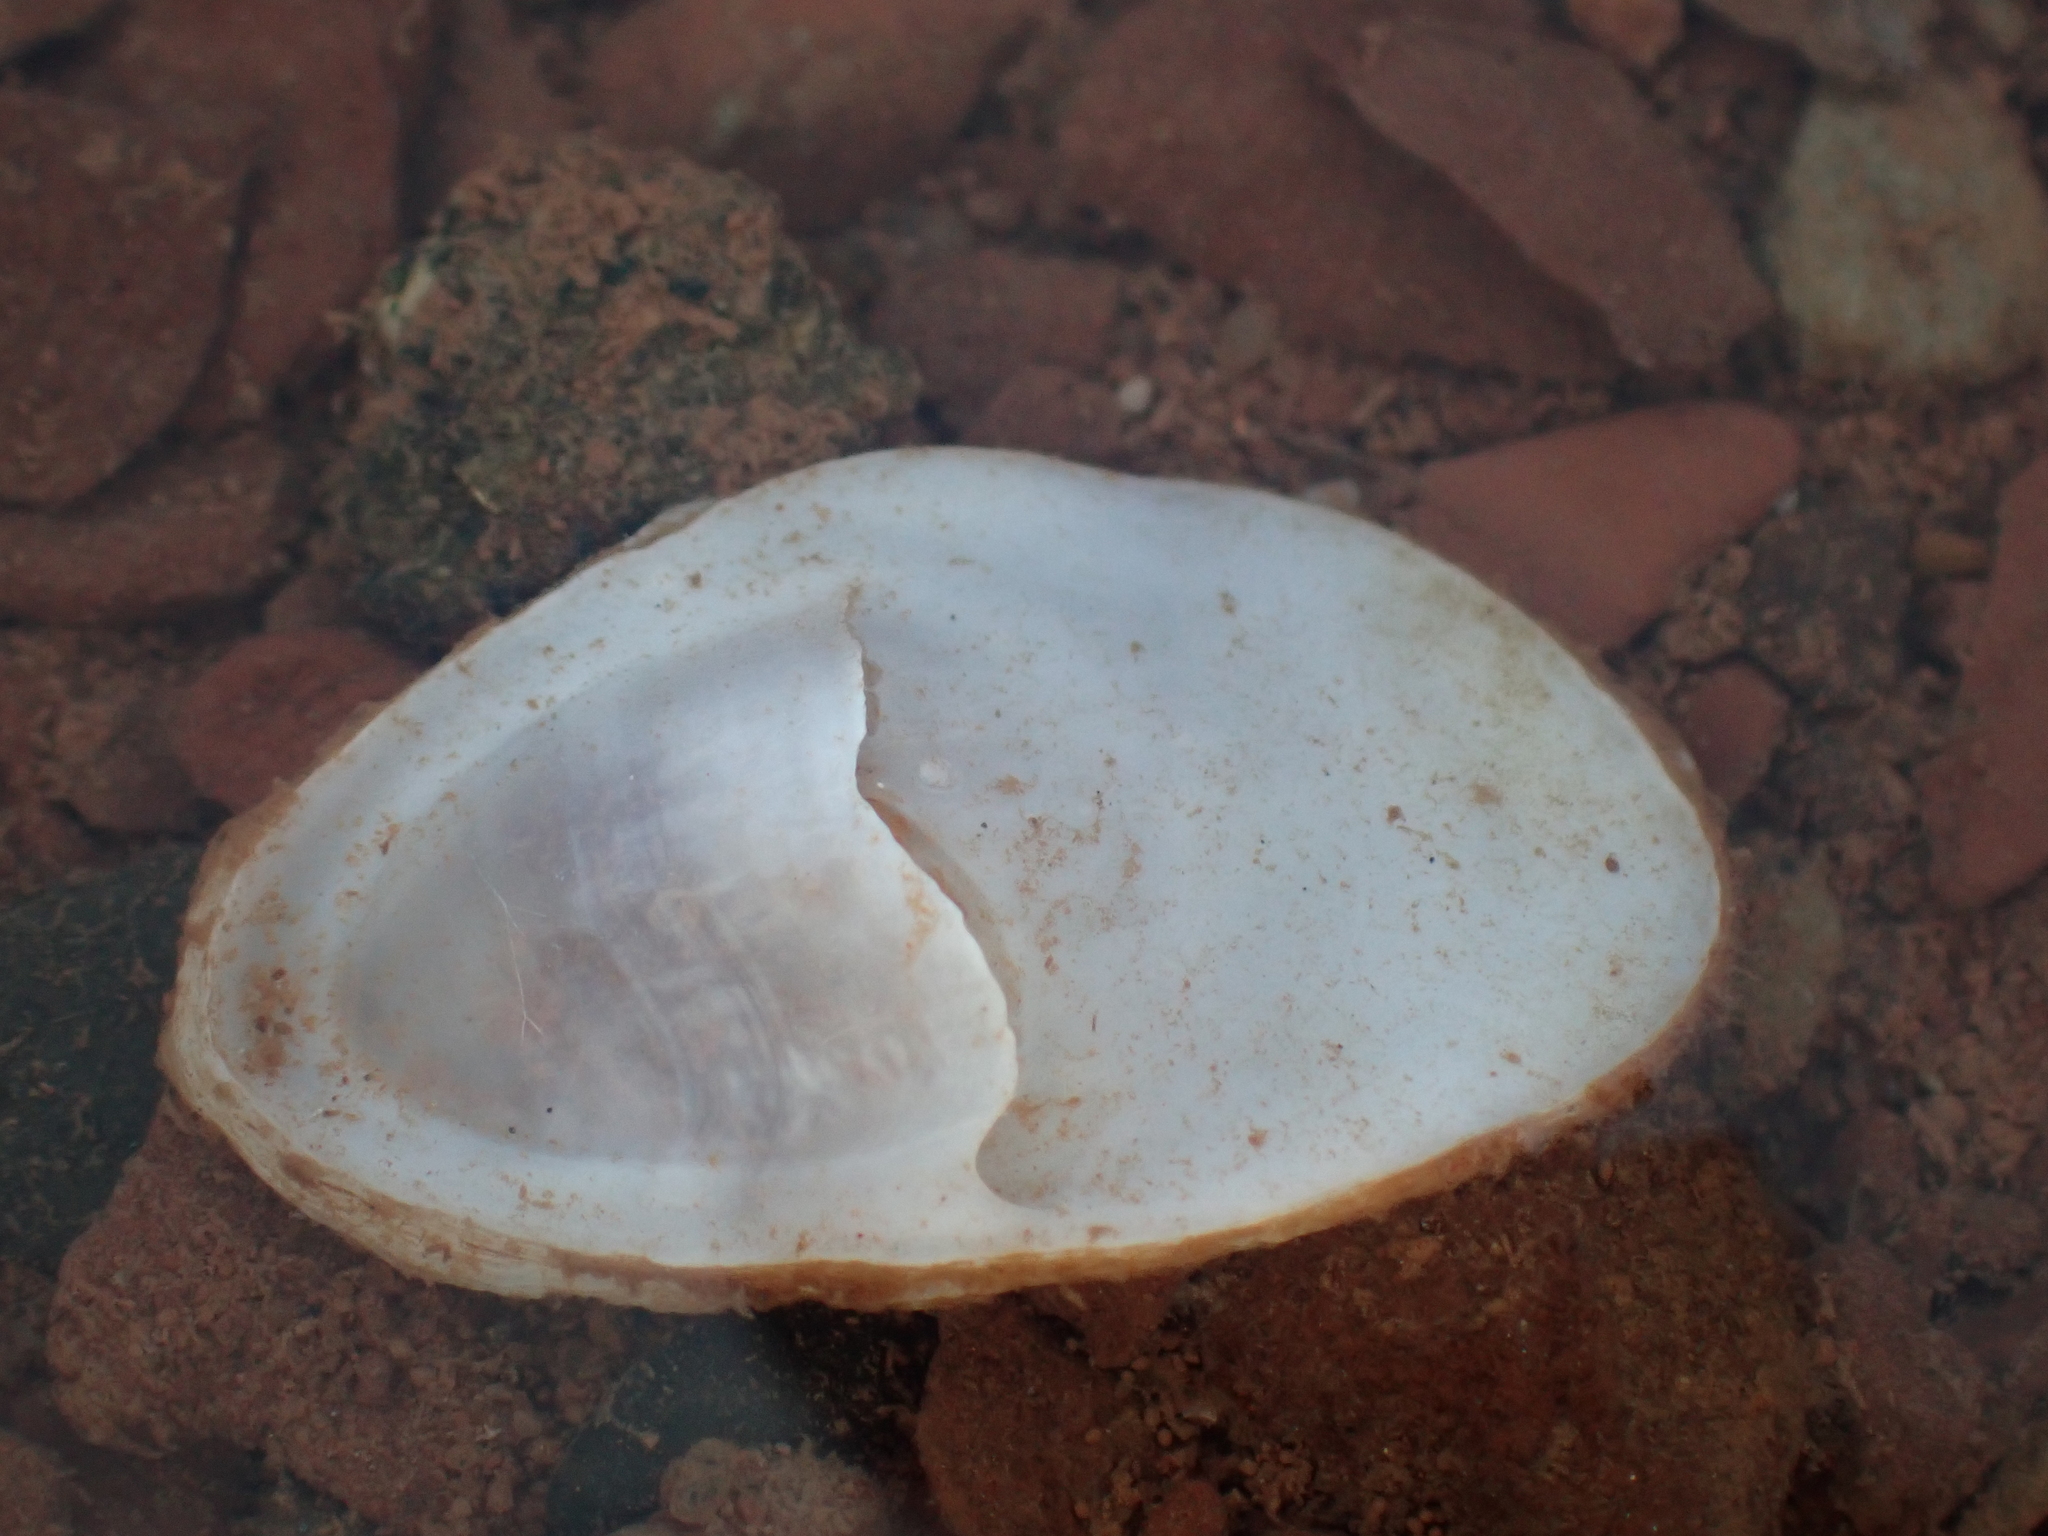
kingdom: Animalia
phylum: Mollusca
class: Gastropoda
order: Littorinimorpha
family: Calyptraeidae
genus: Crepidula
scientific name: Crepidula plana
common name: Eastern white slippersnail
